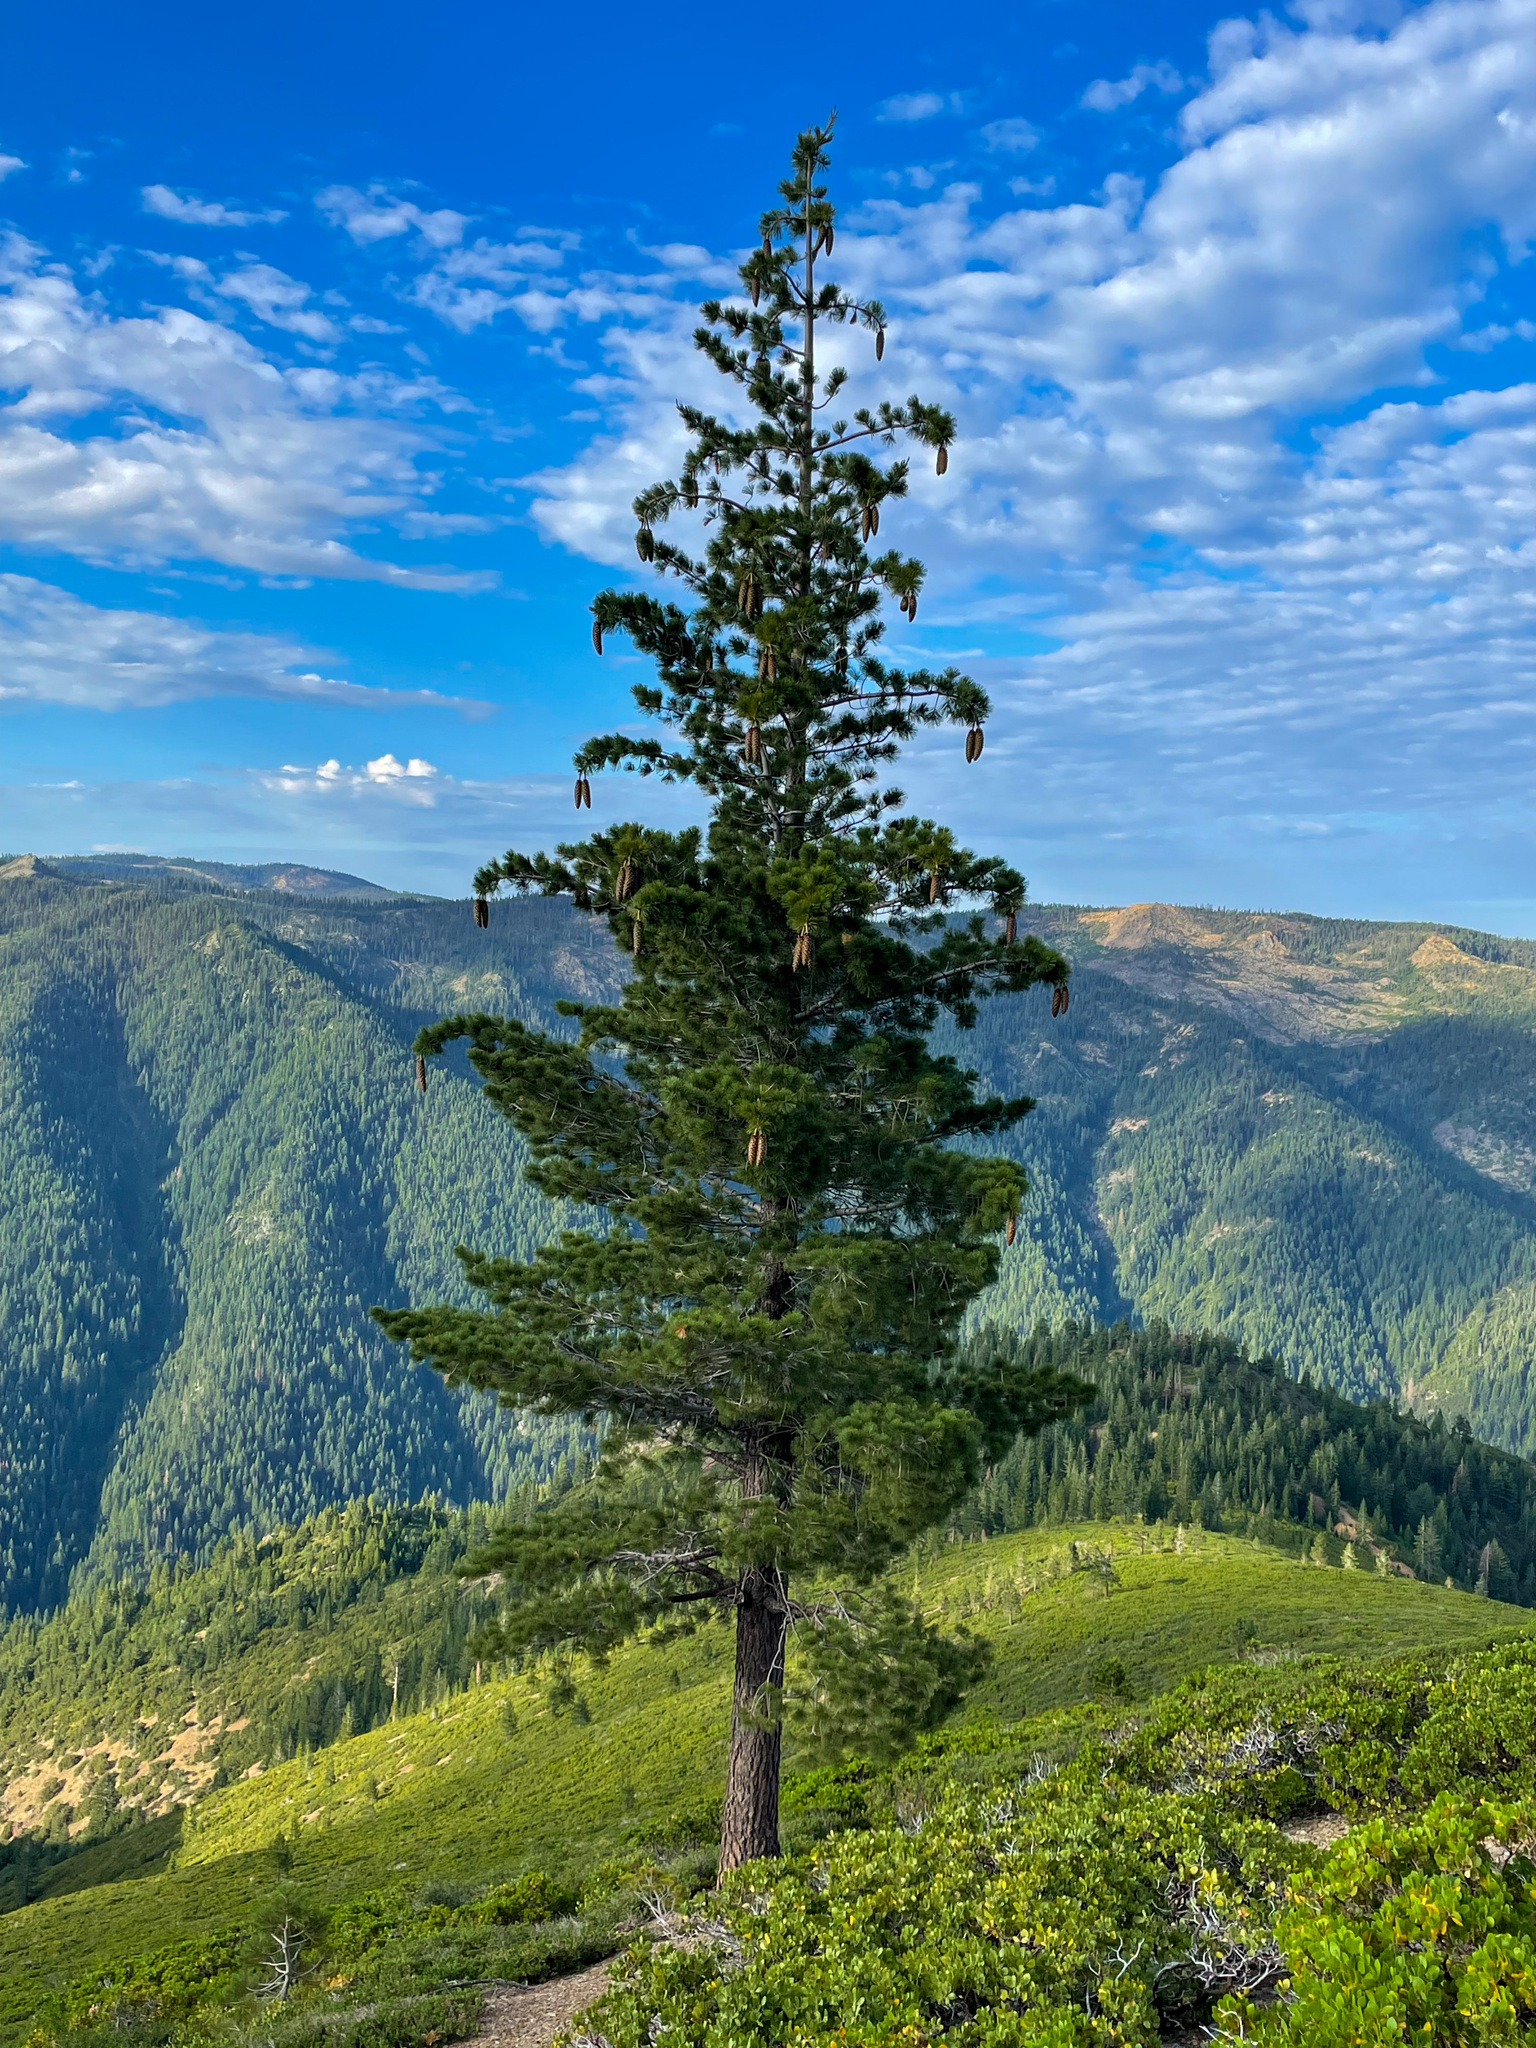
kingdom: Plantae
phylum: Tracheophyta
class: Pinopsida
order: Pinales
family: Pinaceae
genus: Pinus
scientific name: Pinus lambertiana
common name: Sugar pine
